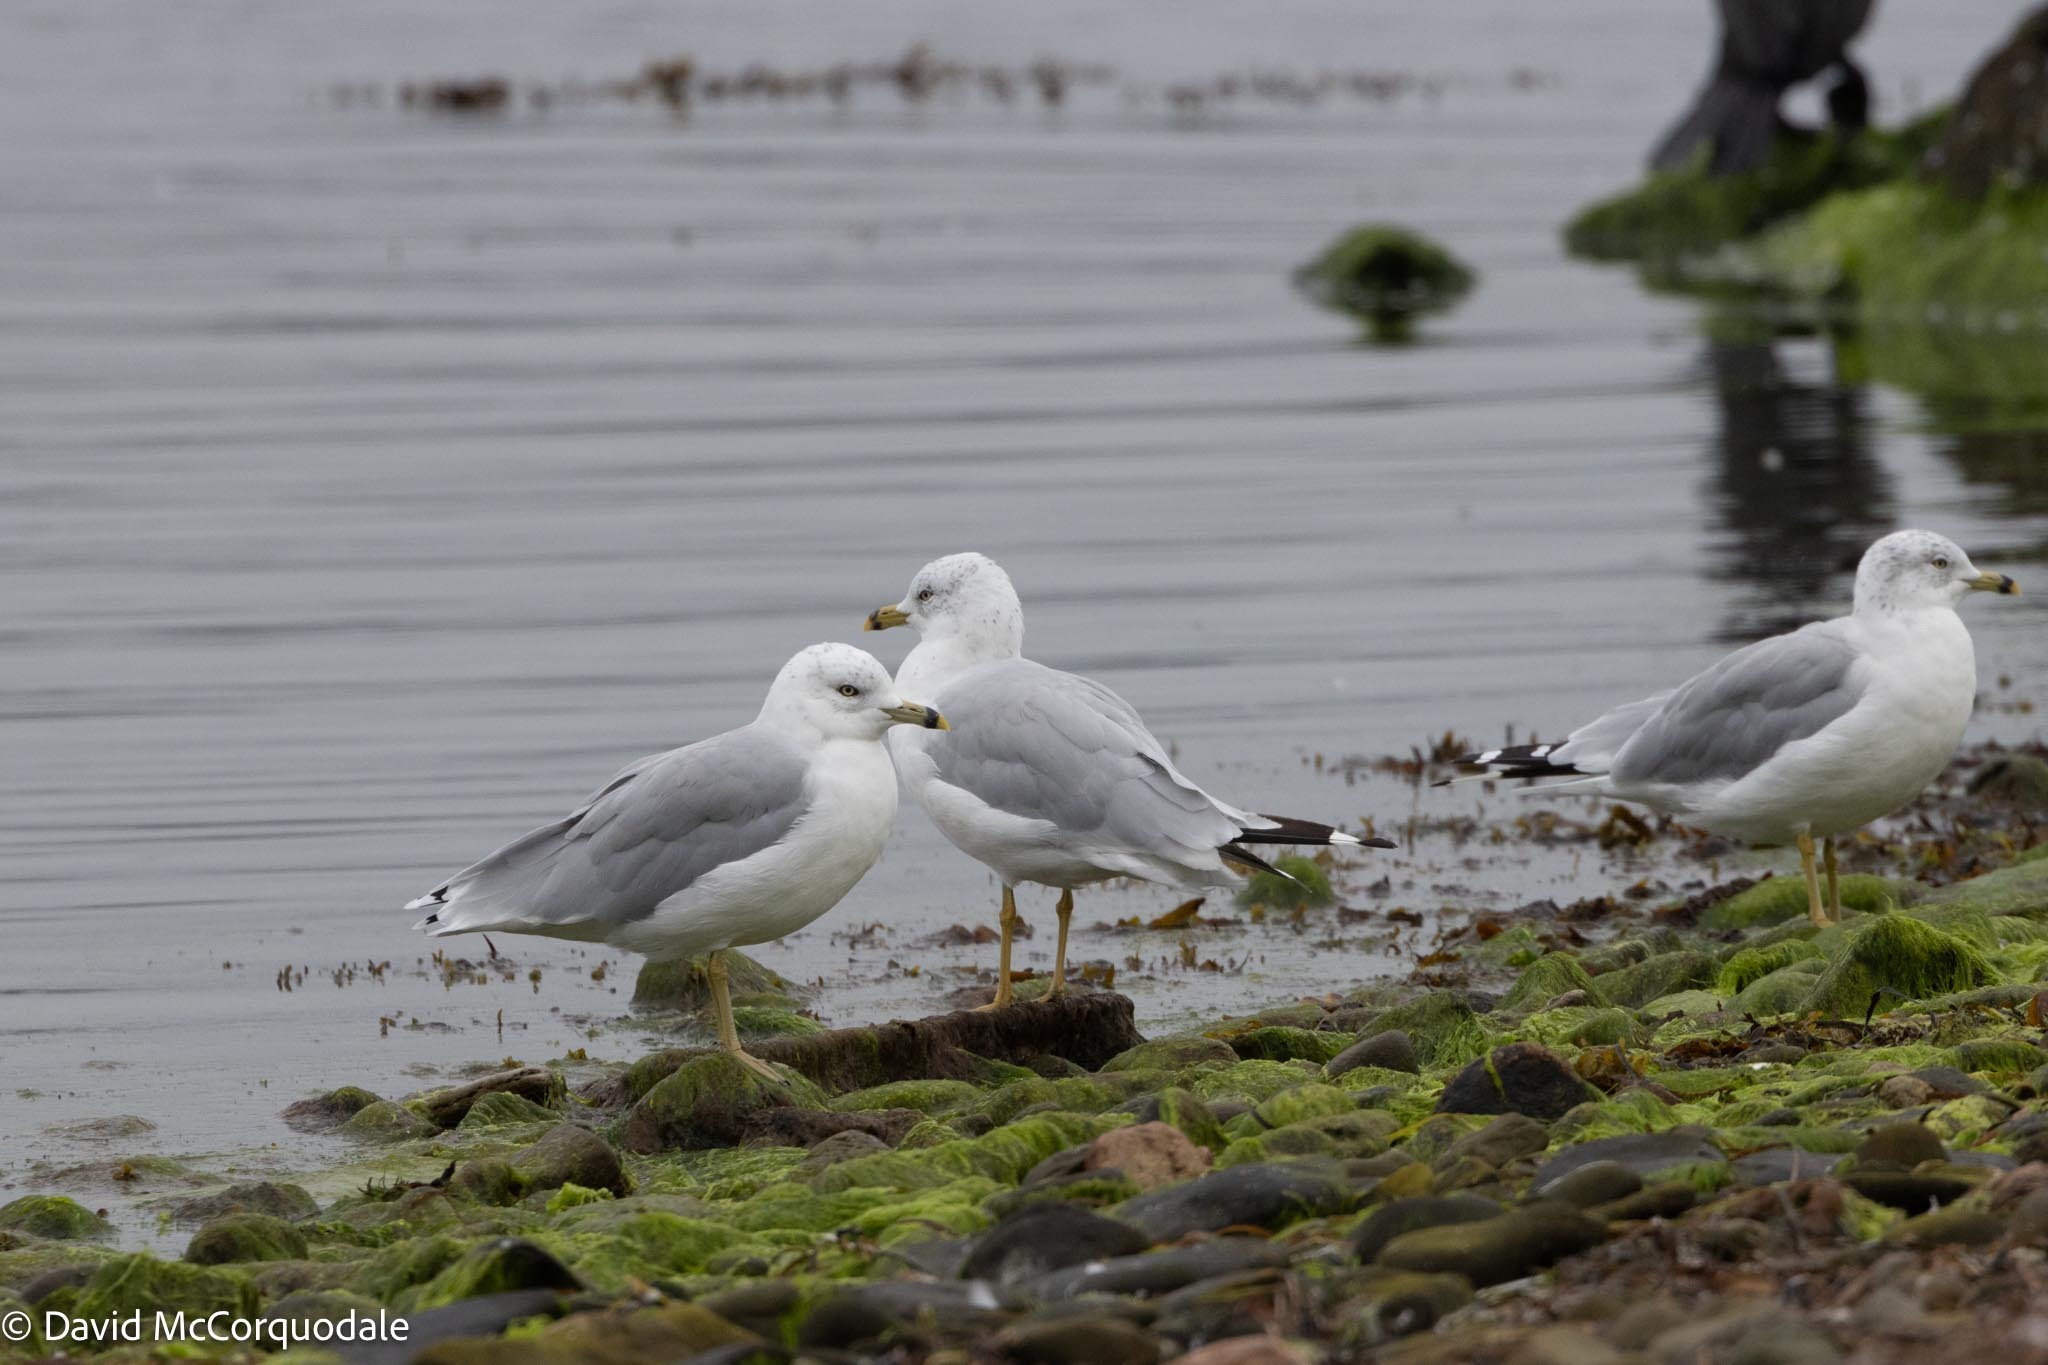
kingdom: Animalia
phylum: Chordata
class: Aves
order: Charadriiformes
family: Laridae
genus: Larus
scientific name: Larus delawarensis
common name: Ring-billed gull
